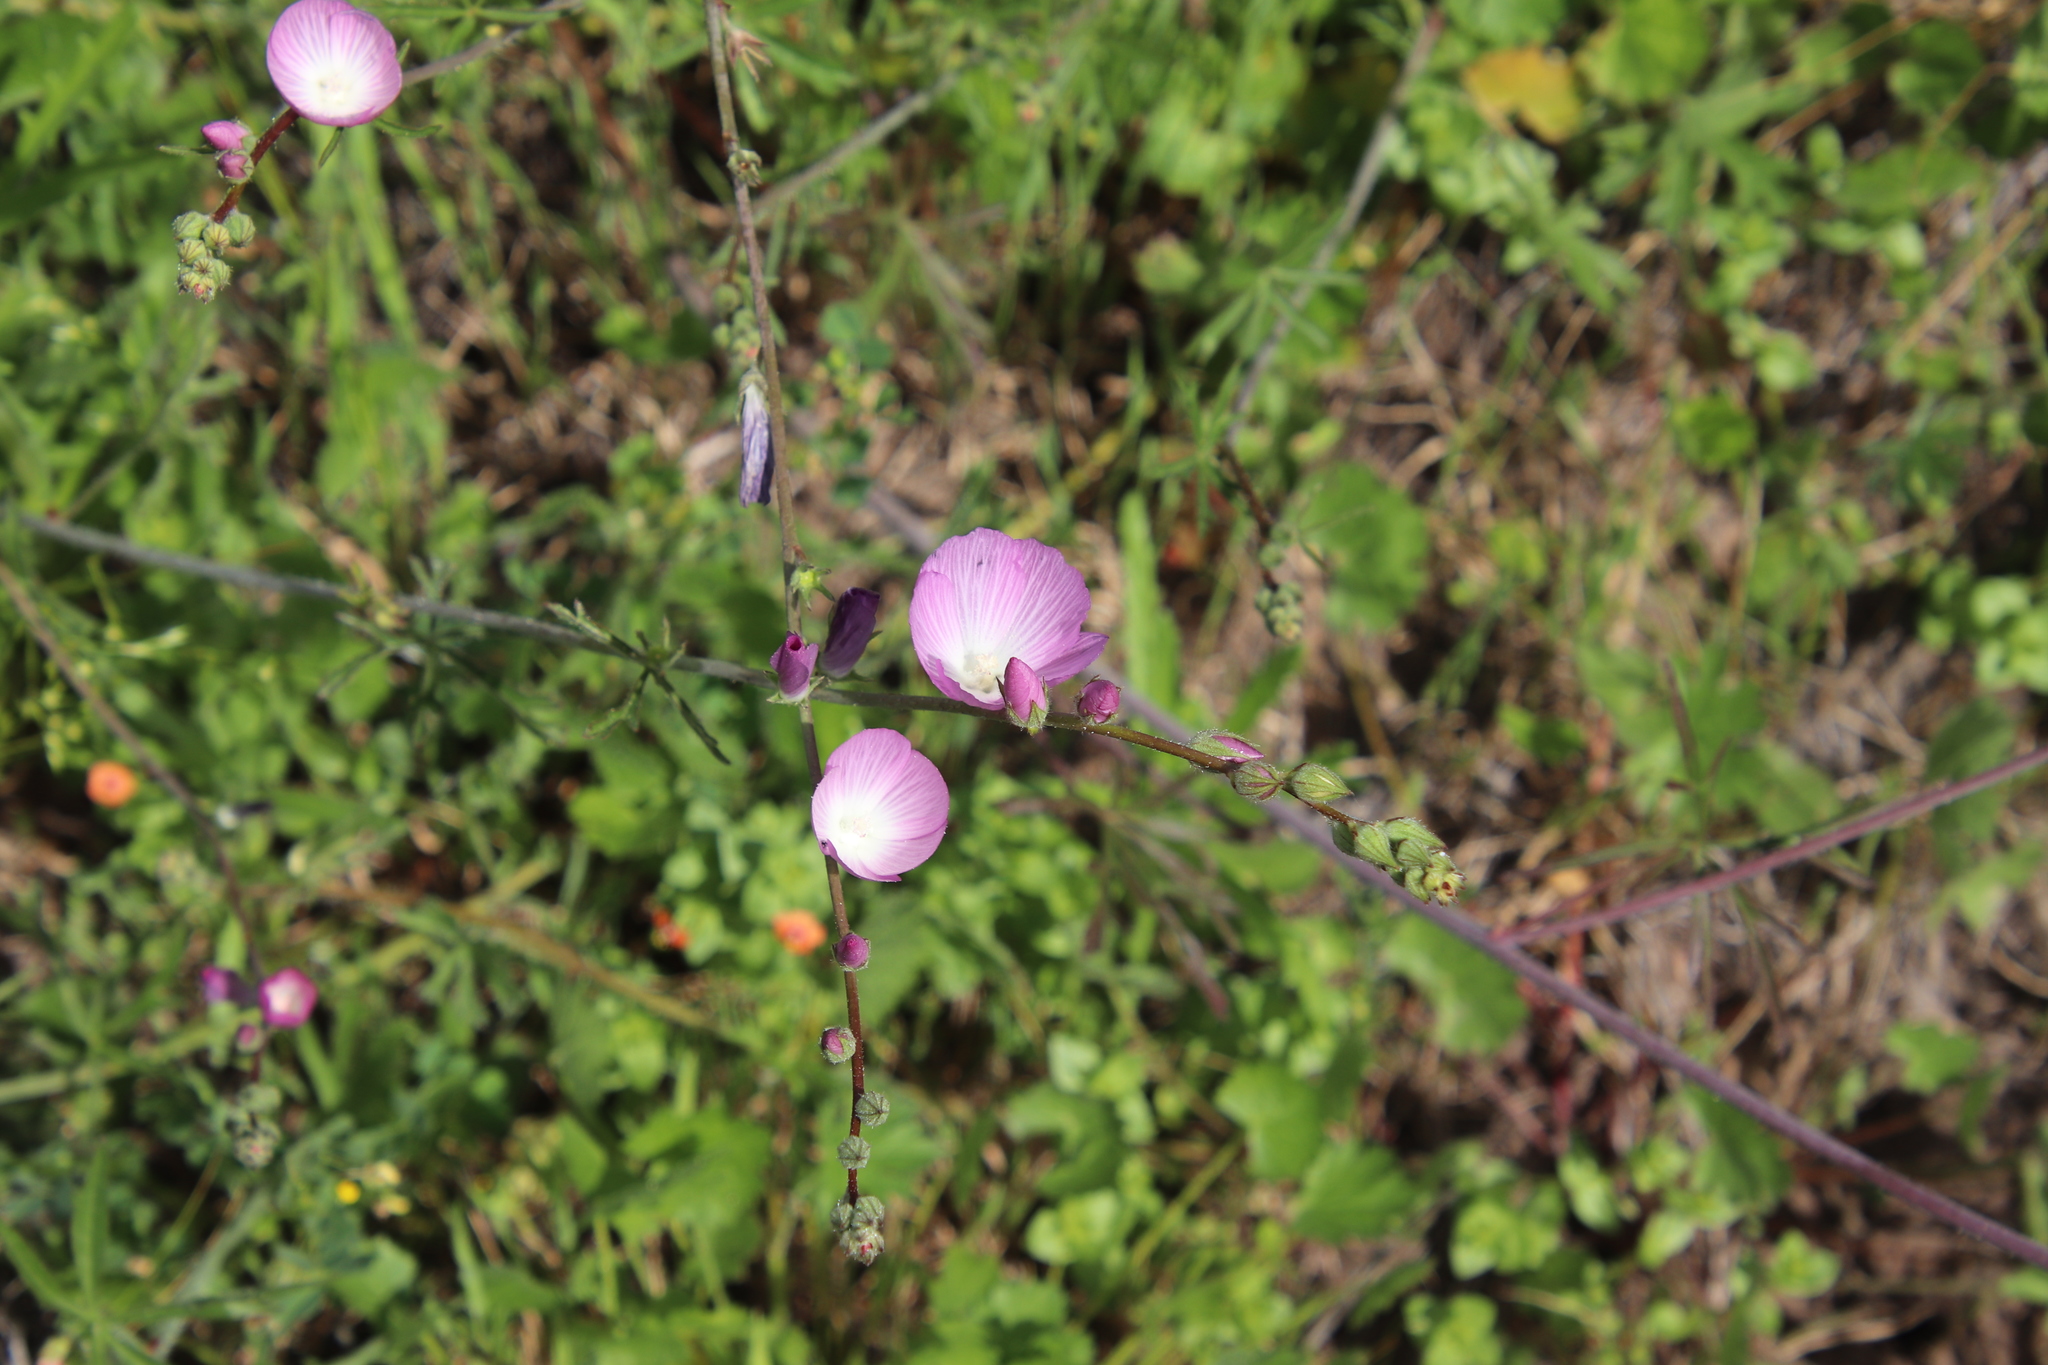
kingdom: Plantae
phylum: Tracheophyta
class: Magnoliopsida
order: Malvales
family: Malvaceae
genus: Sidalcea
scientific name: Sidalcea sparsifolia
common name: Southern checkerbloom
